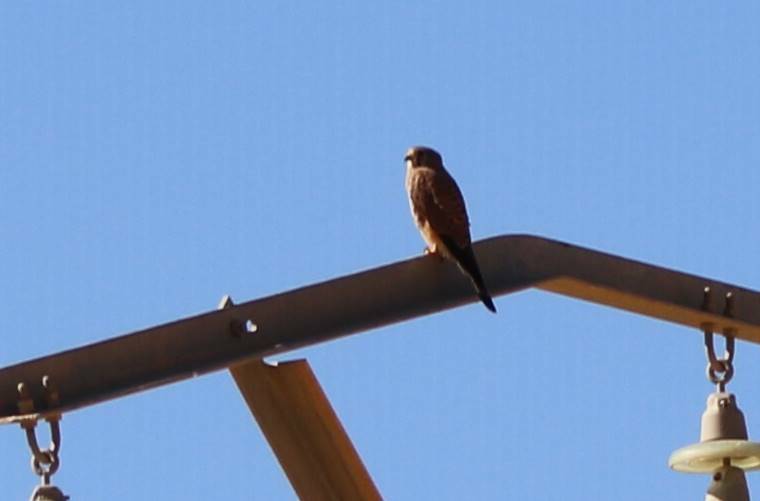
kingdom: Animalia
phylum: Chordata
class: Aves
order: Falconiformes
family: Falconidae
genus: Falco
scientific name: Falco tinnunculus
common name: Common kestrel
